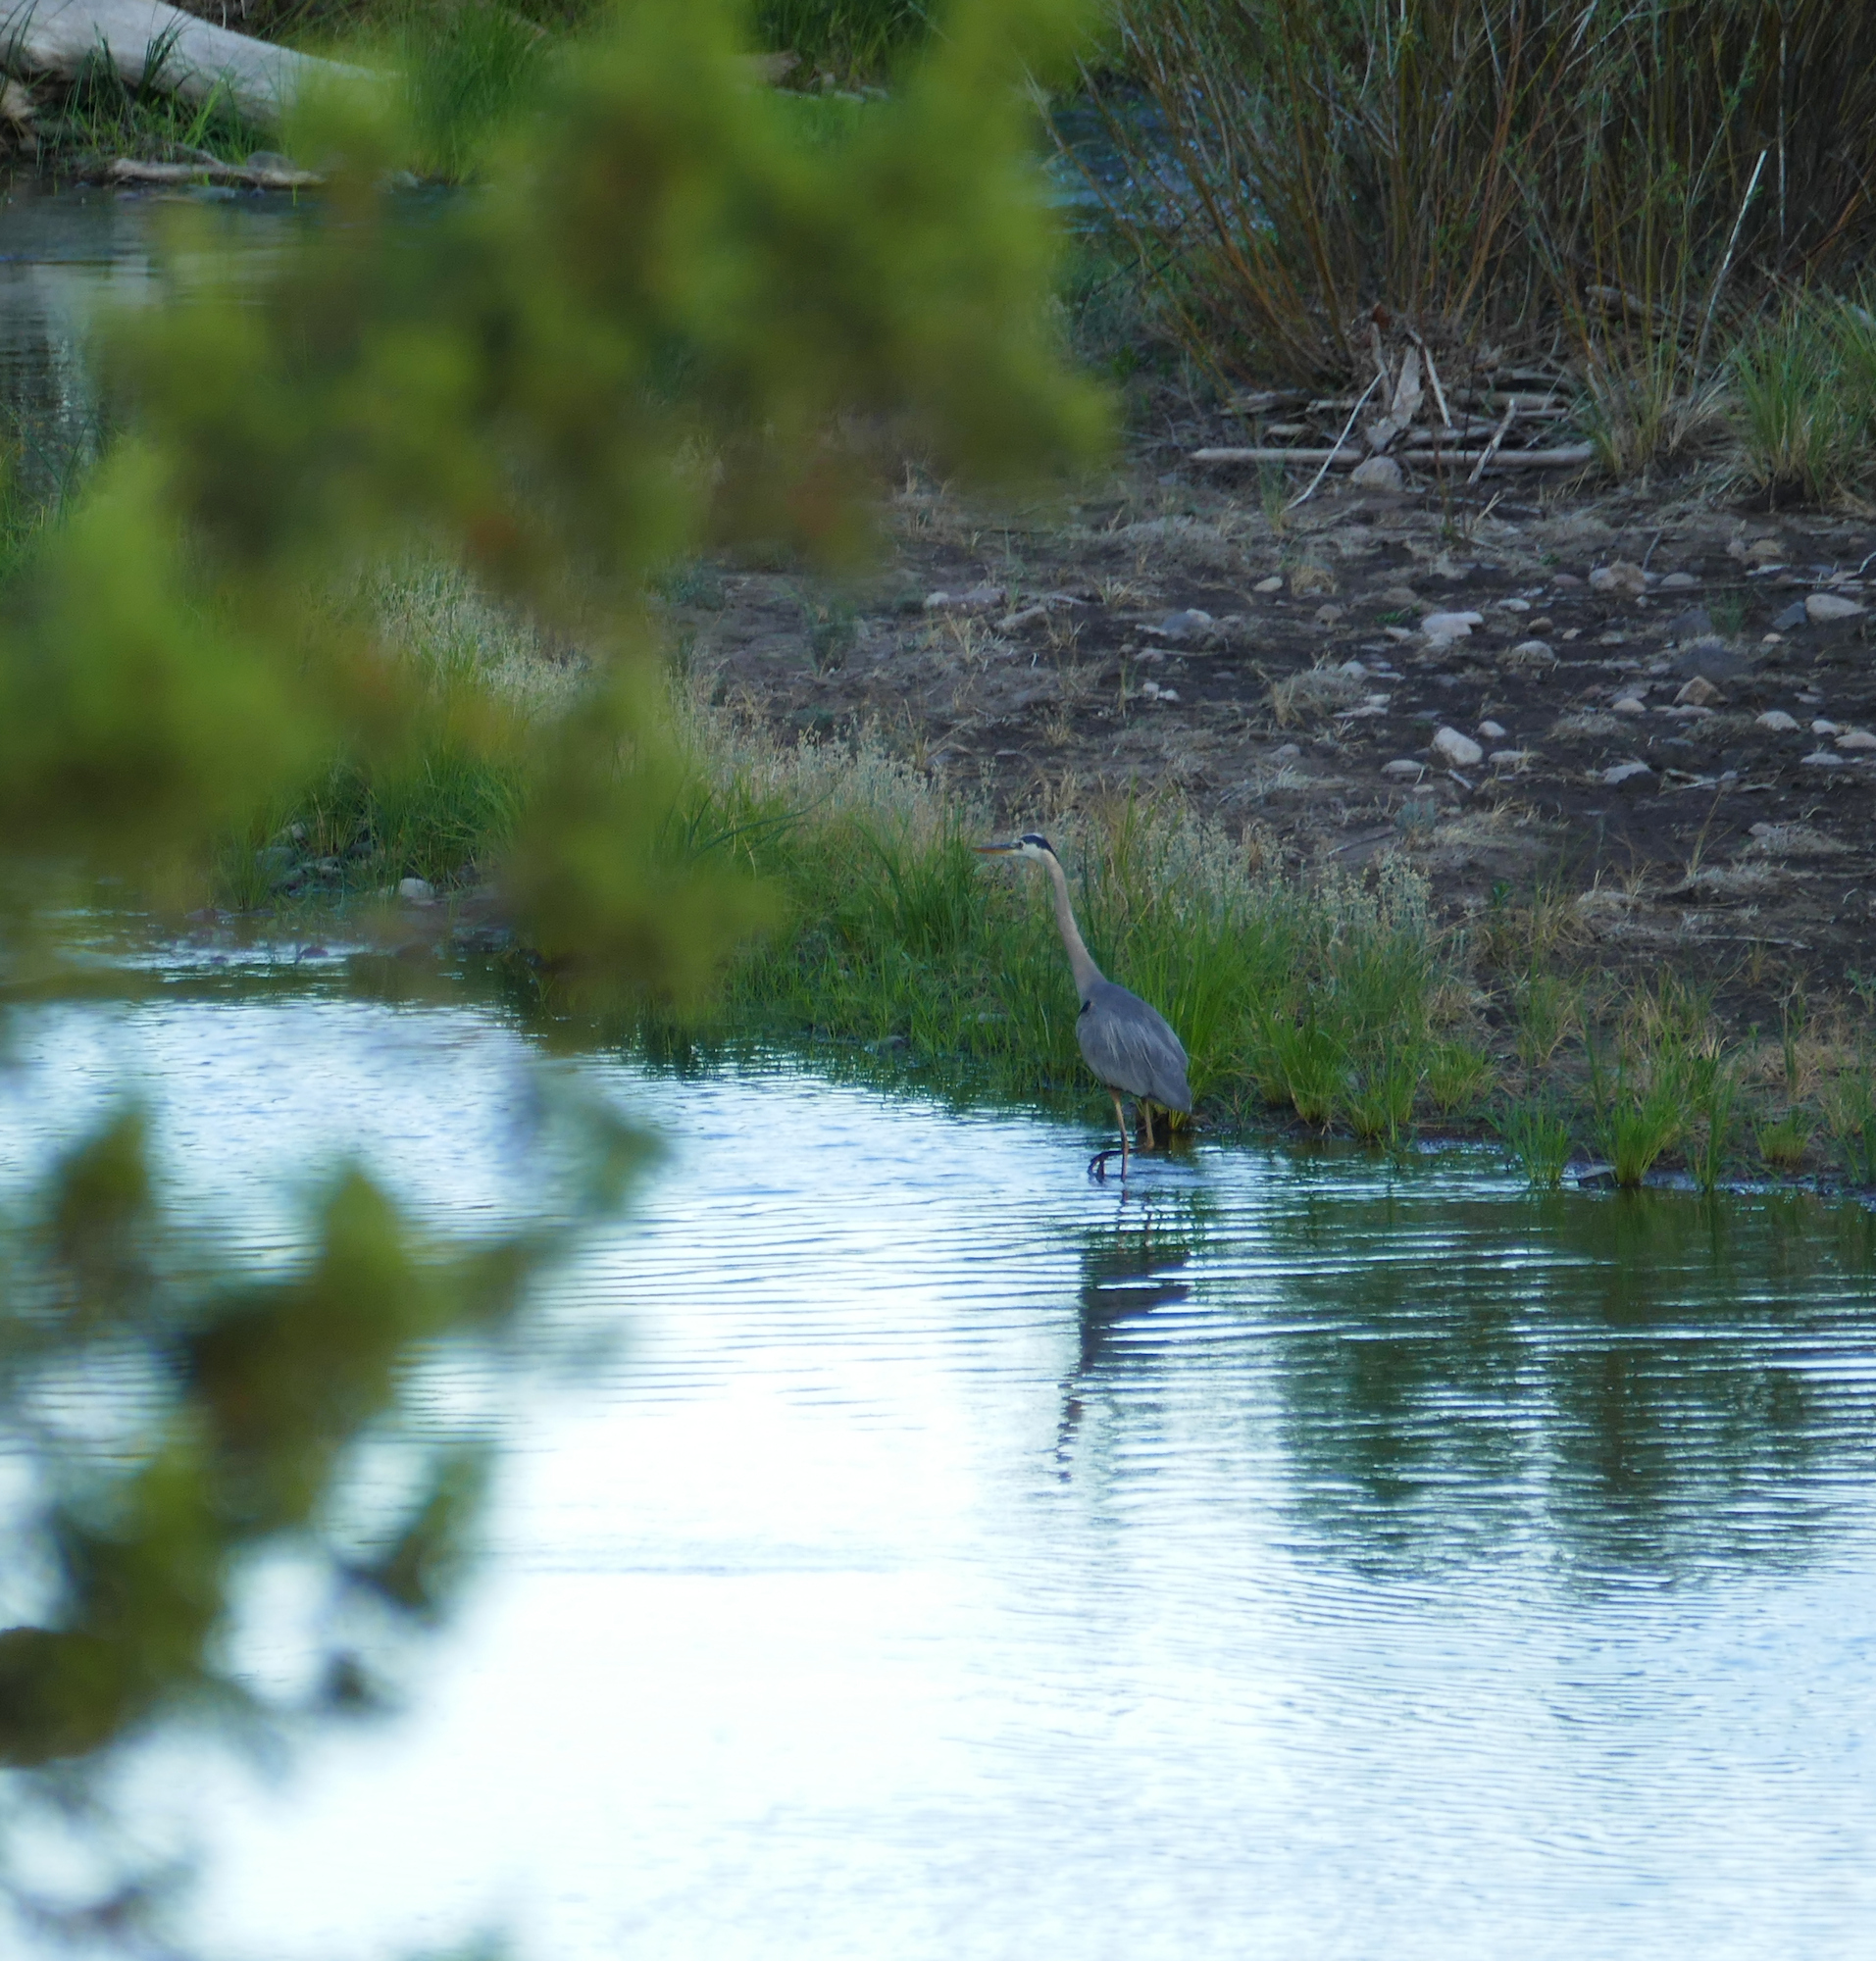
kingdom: Animalia
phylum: Chordata
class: Aves
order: Pelecaniformes
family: Ardeidae
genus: Ardea
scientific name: Ardea herodias
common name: Great blue heron
